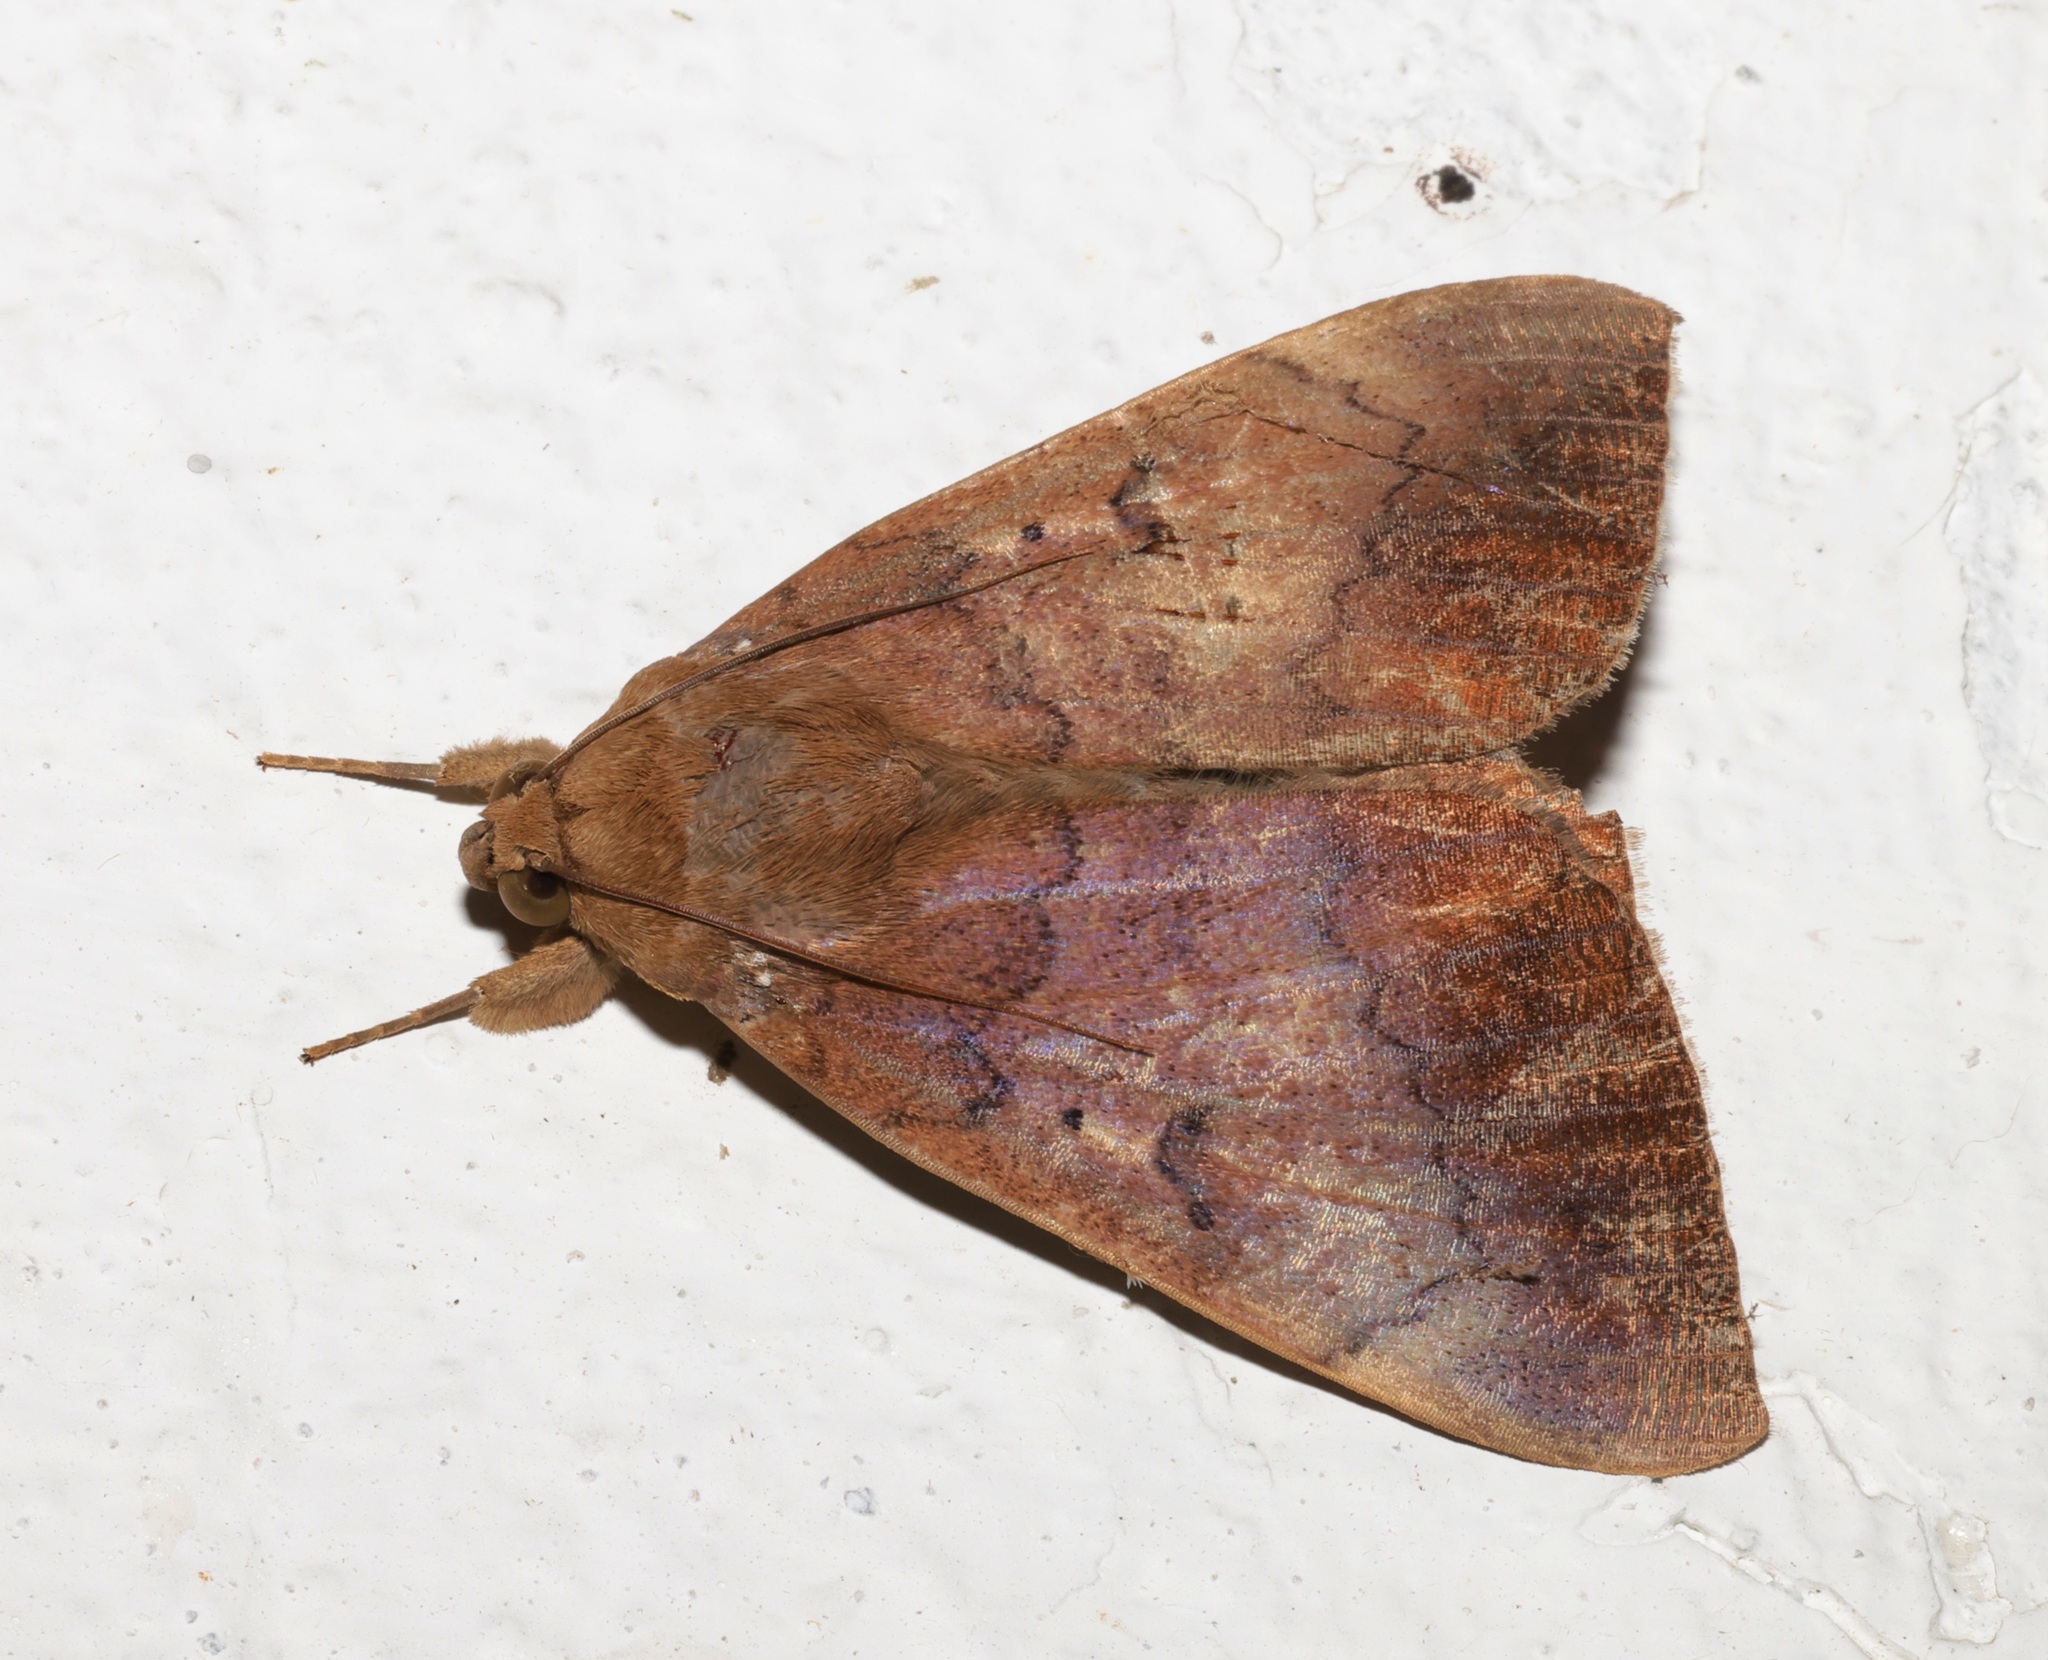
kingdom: Animalia
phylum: Arthropoda
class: Insecta
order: Lepidoptera
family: Erebidae
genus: Achaea
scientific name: Achaea serva
